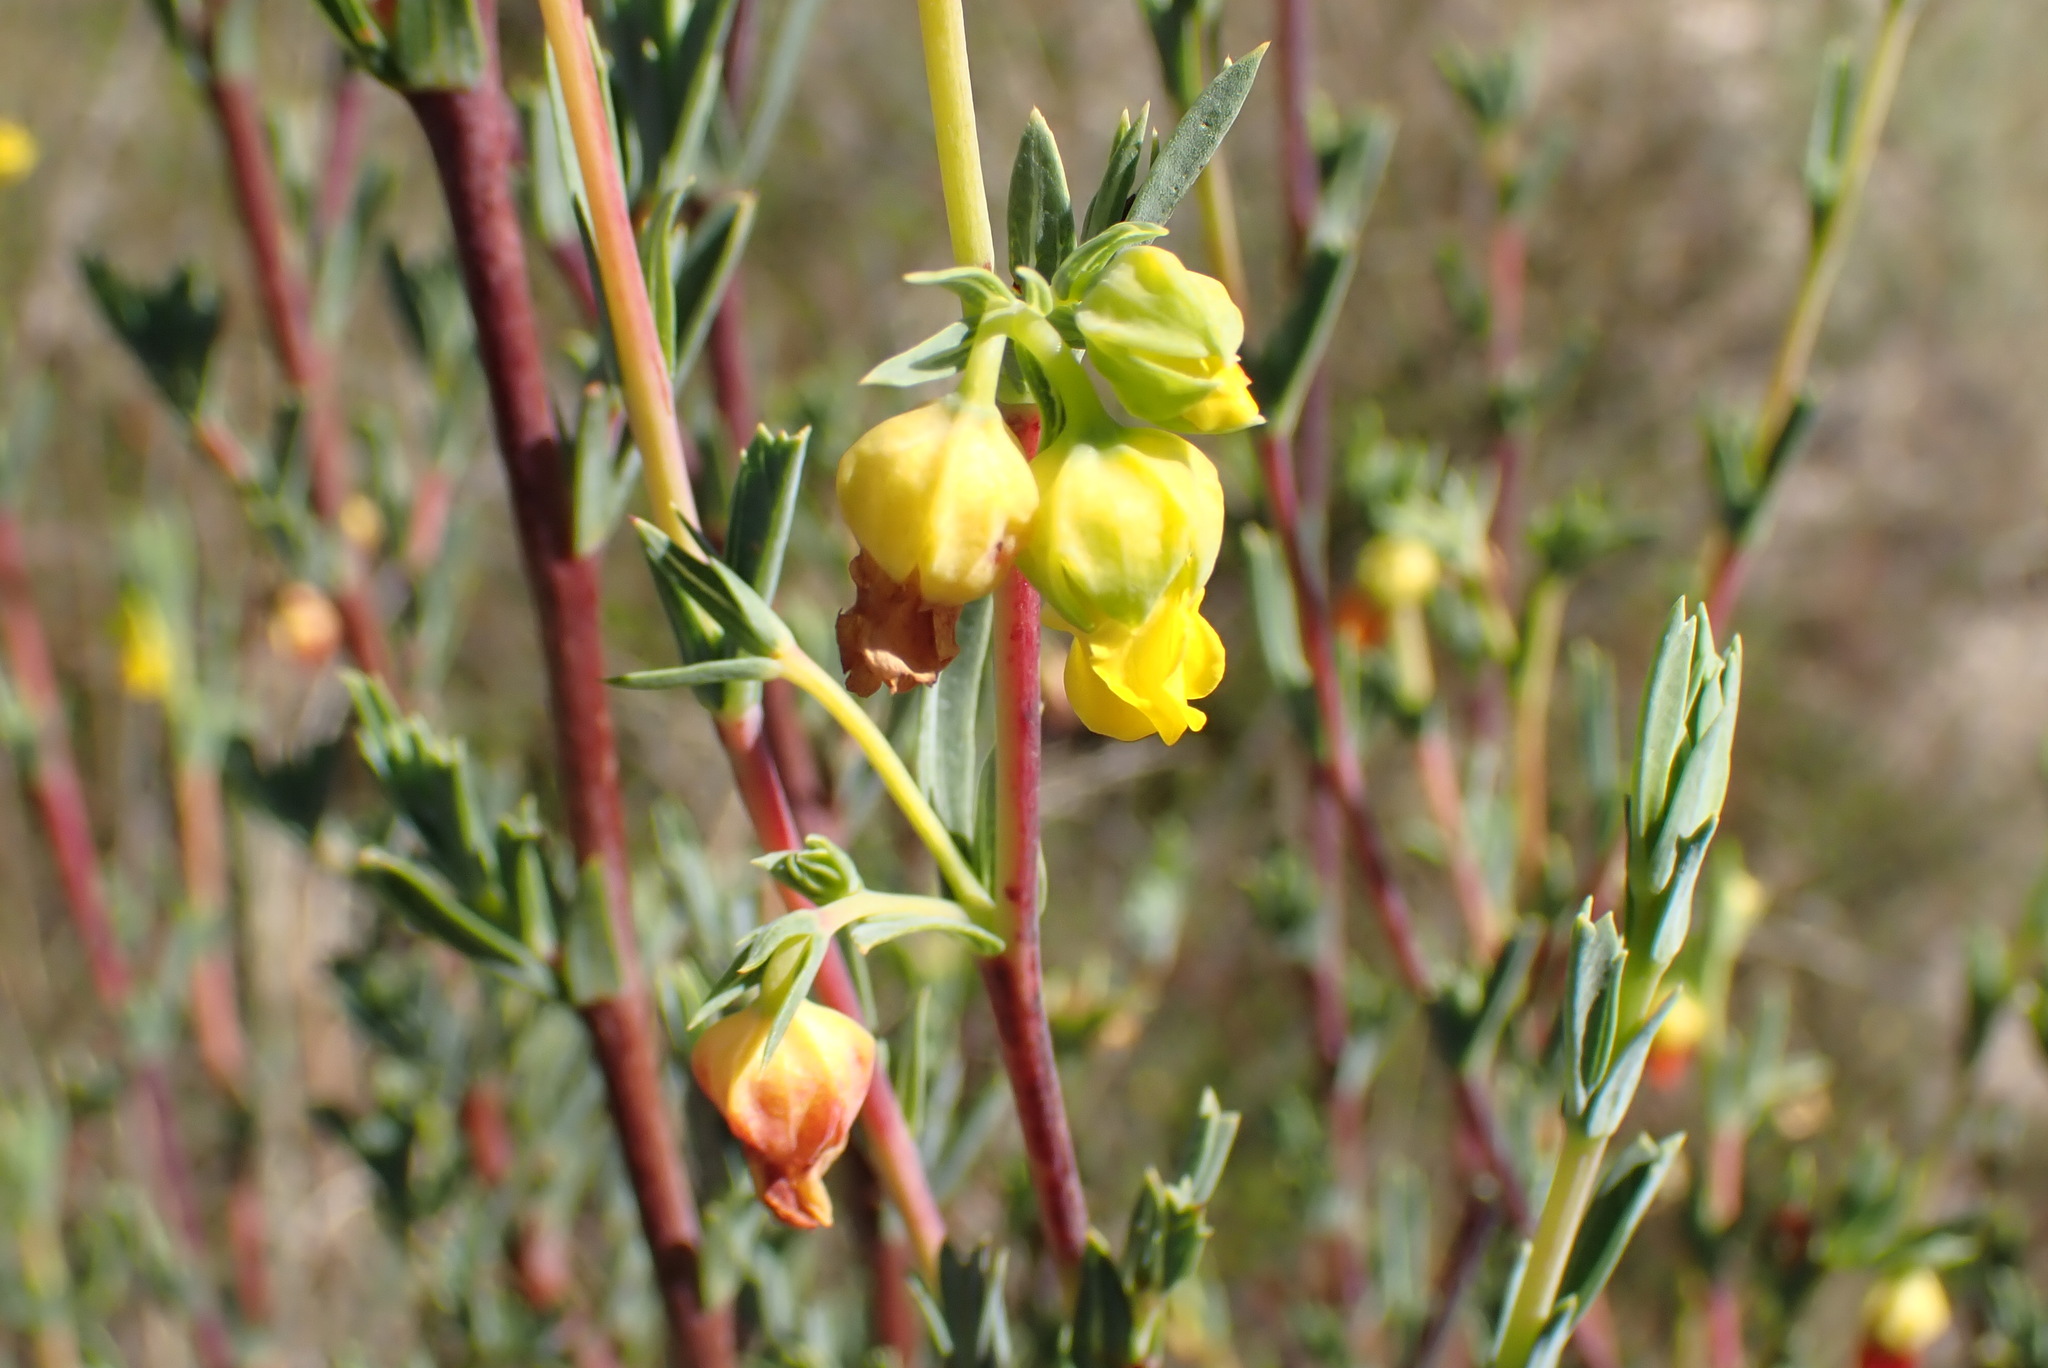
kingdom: Plantae
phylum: Tracheophyta
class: Magnoliopsida
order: Malvales
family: Malvaceae
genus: Hermannia
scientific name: Hermannia
